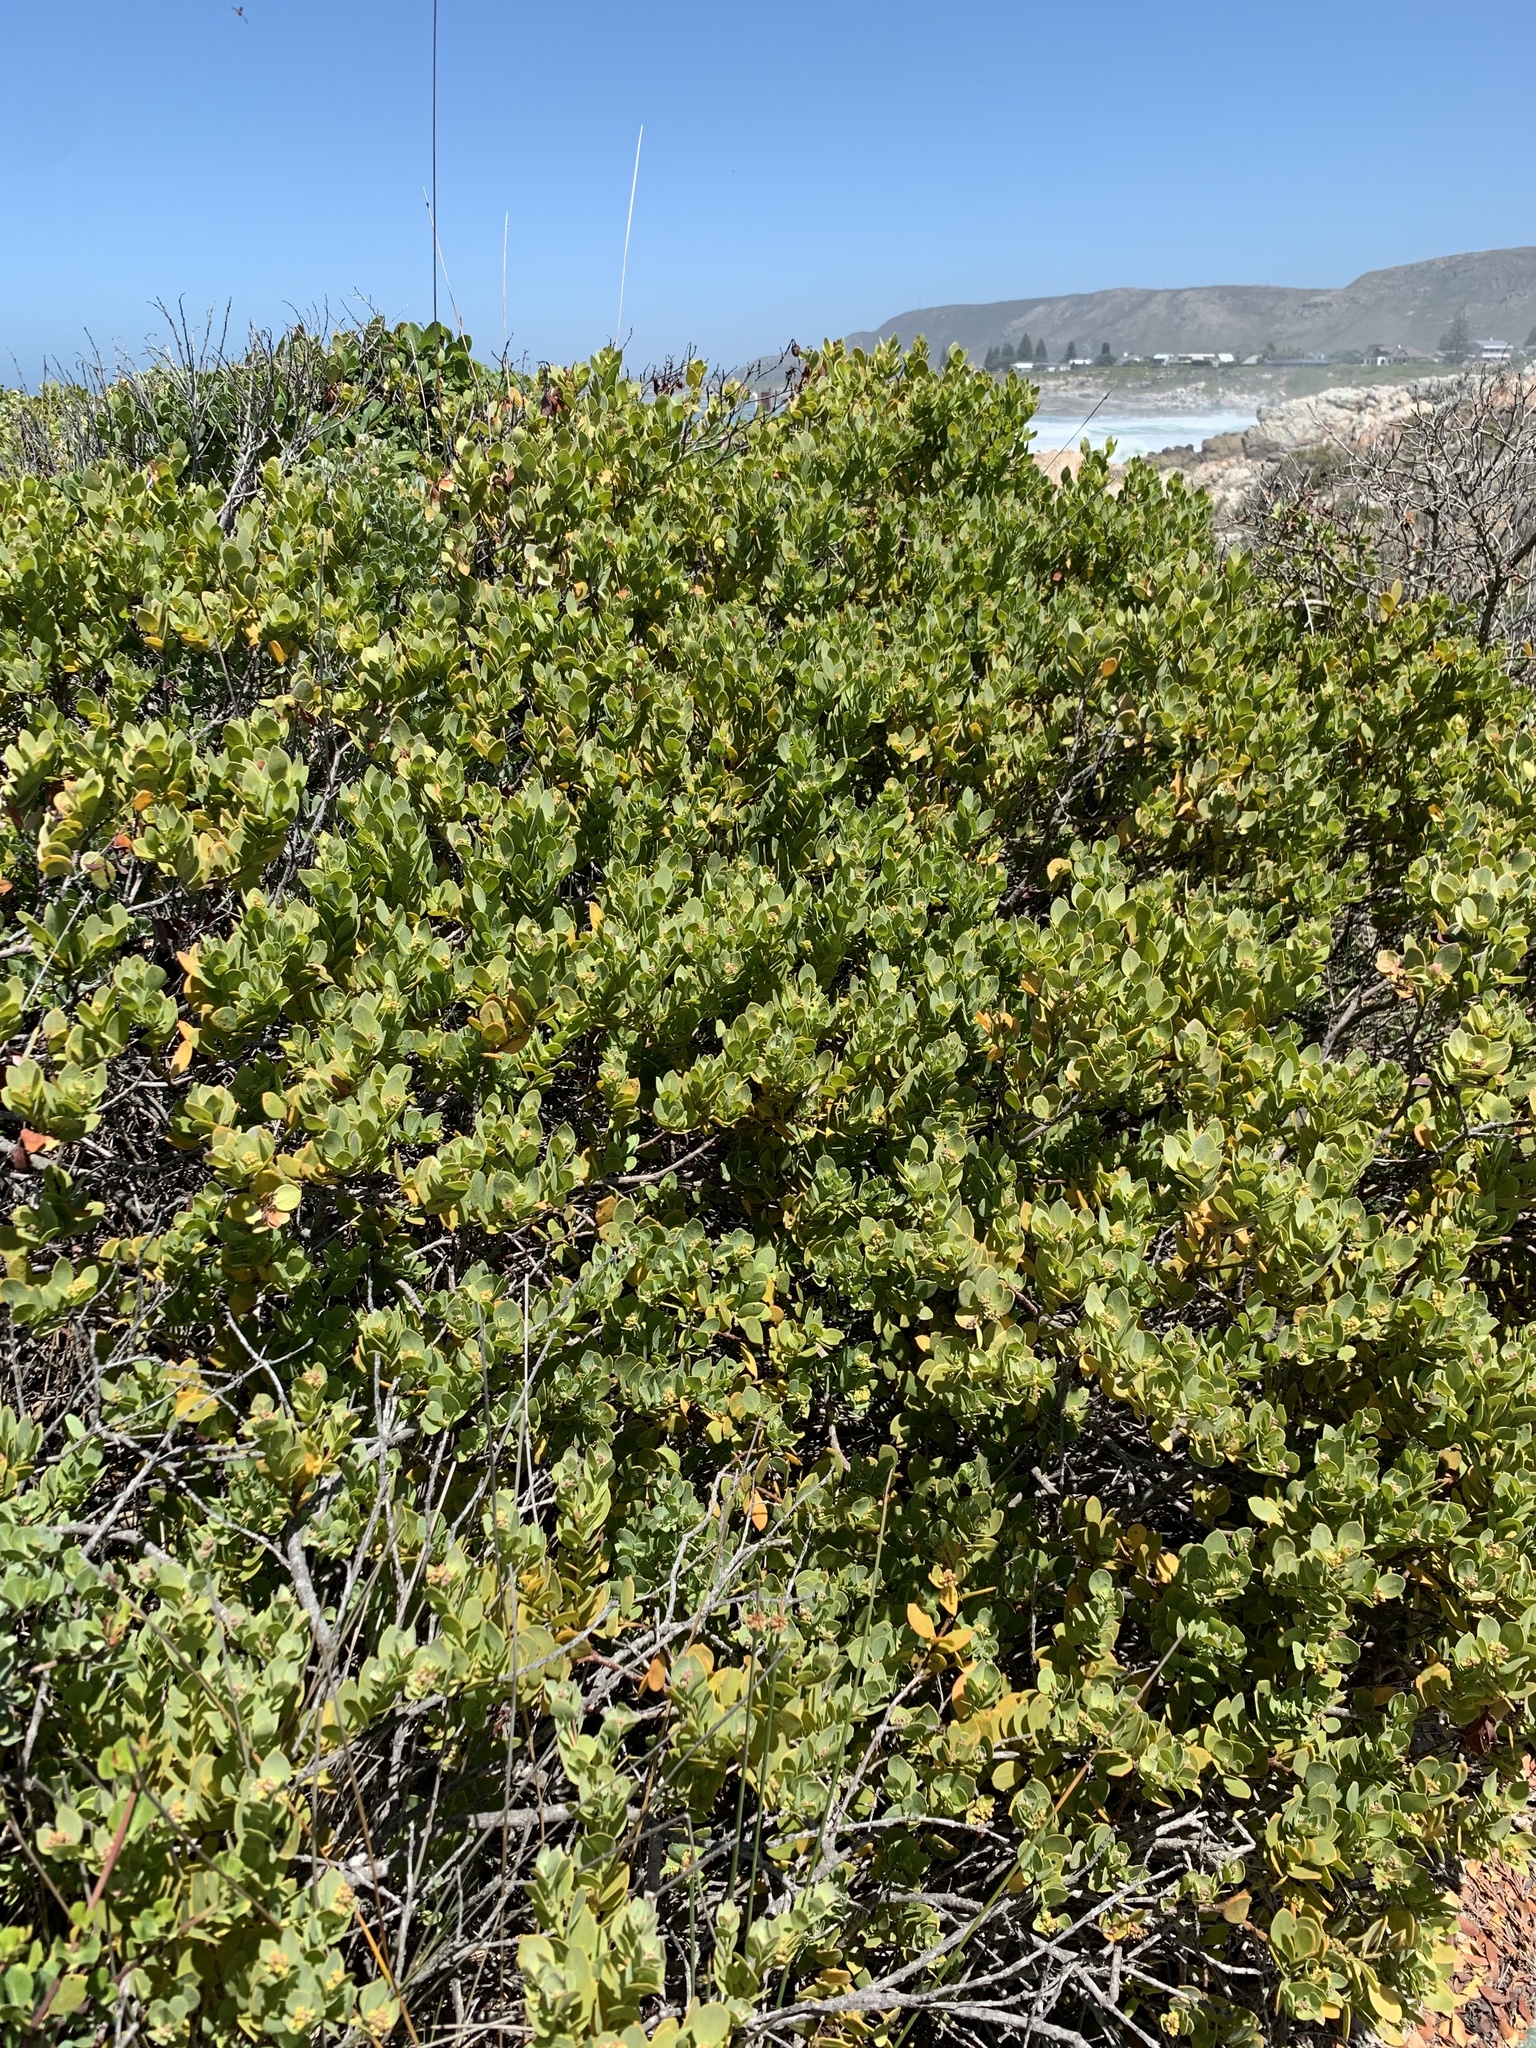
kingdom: Plantae
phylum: Tracheophyta
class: Magnoliopsida
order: Santalales
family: Santalaceae
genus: Osyris
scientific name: Osyris compressa
